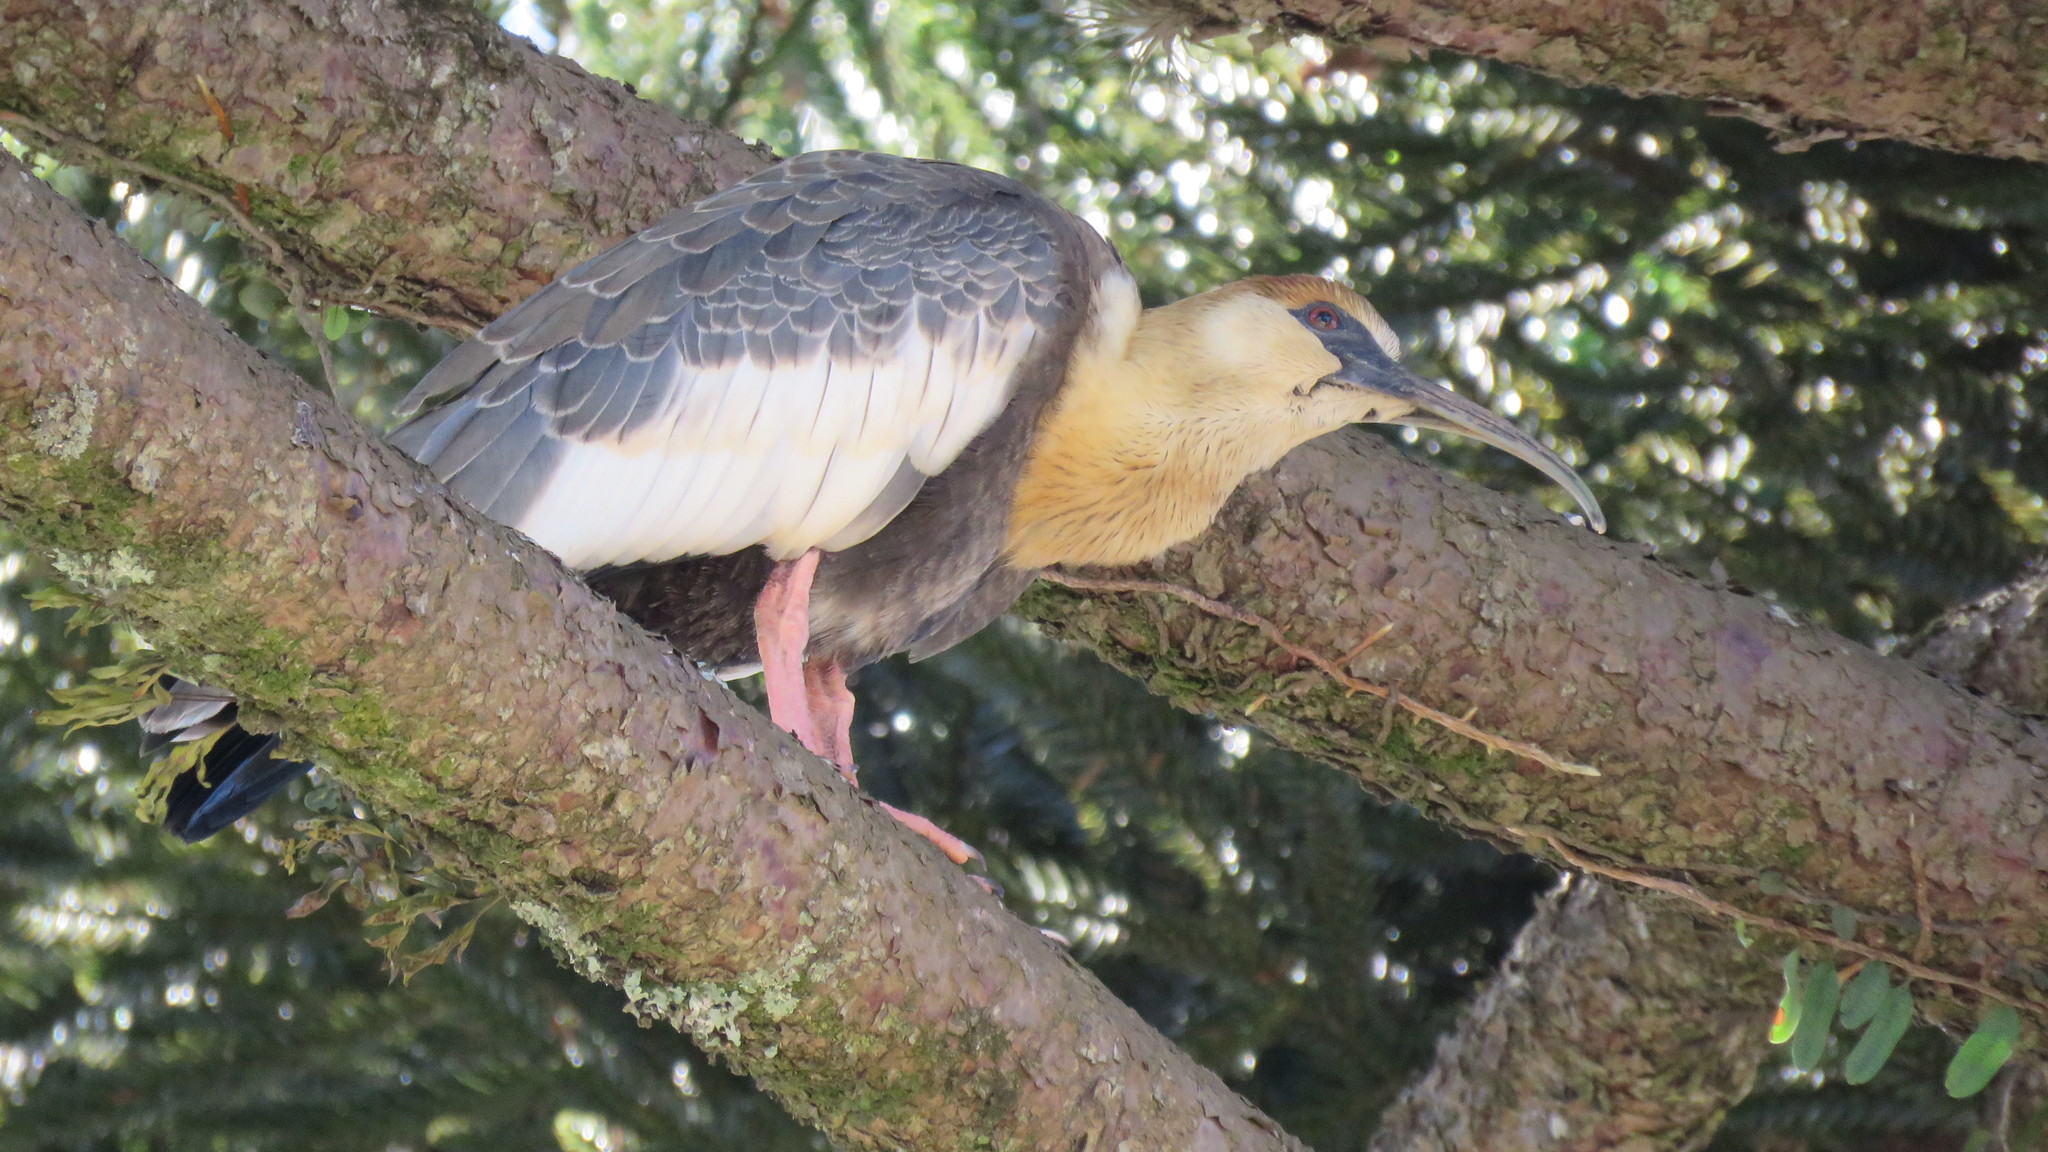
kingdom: Animalia
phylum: Chordata
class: Aves
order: Pelecaniformes
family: Threskiornithidae
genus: Theristicus
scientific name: Theristicus caudatus
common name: Buff-necked ibis
